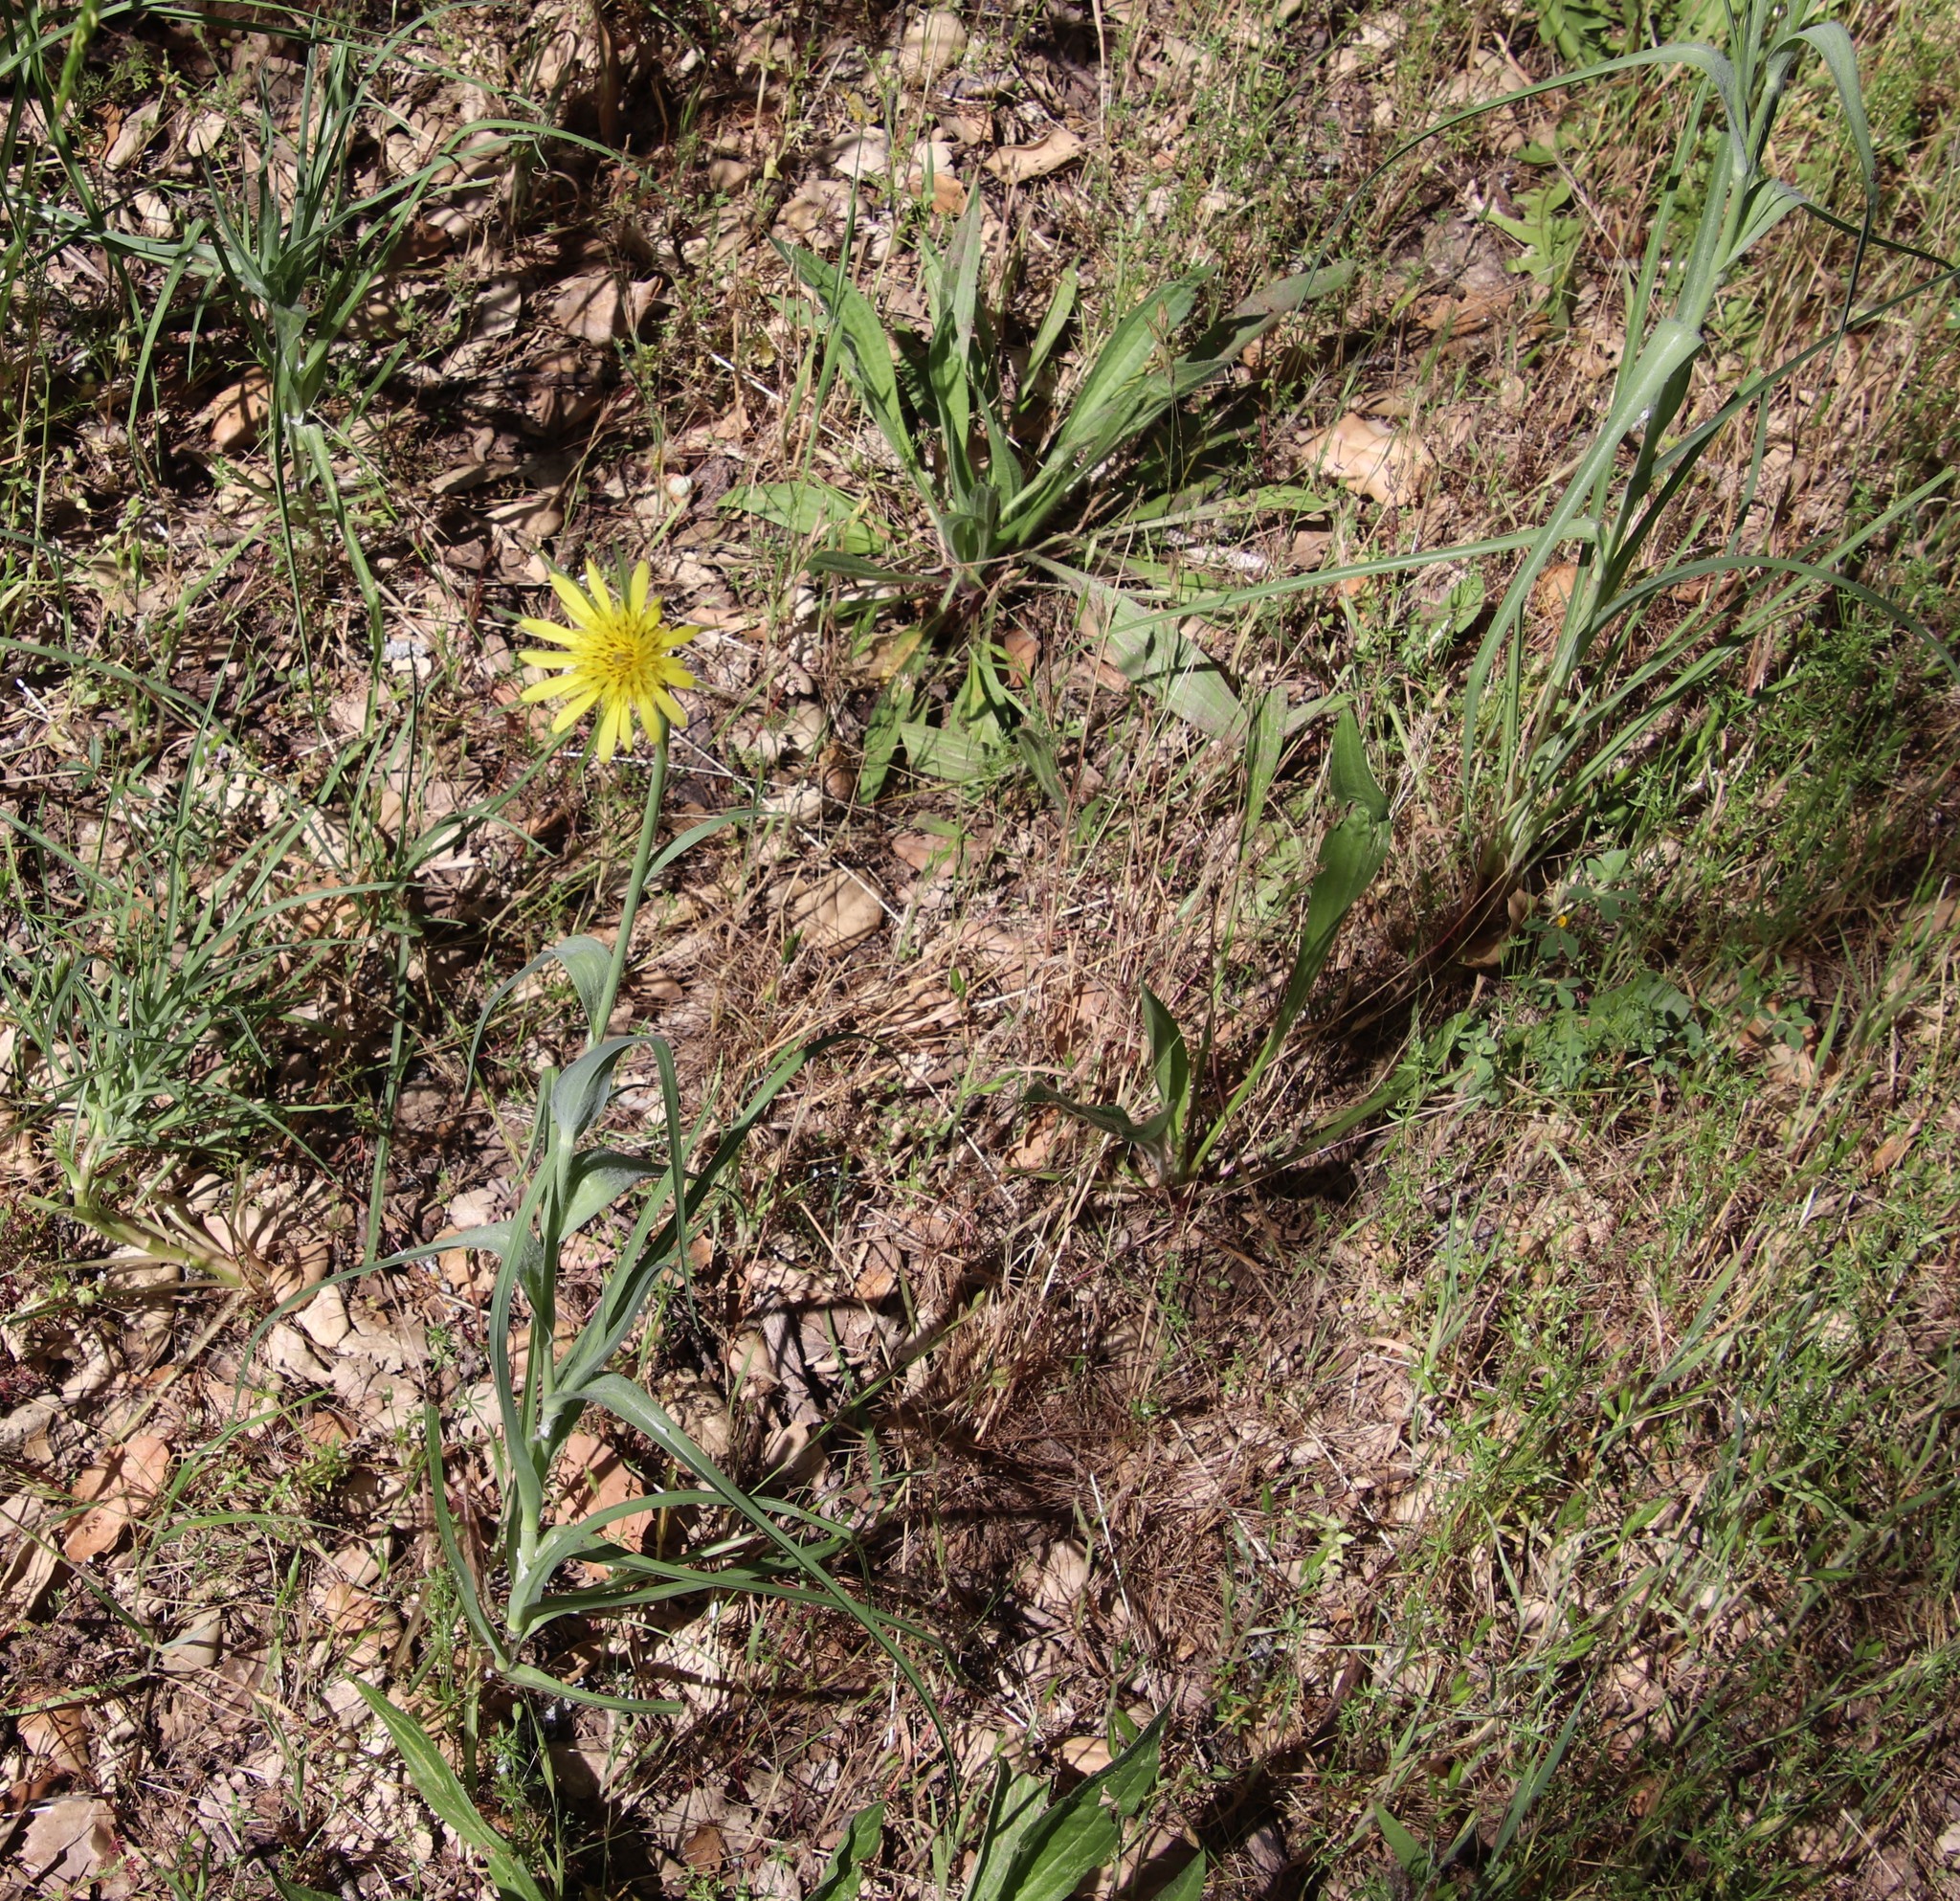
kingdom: Plantae
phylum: Tracheophyta
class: Magnoliopsida
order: Asterales
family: Asteraceae
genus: Tragopogon
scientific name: Tragopogon dubius
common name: Yellow salsify
